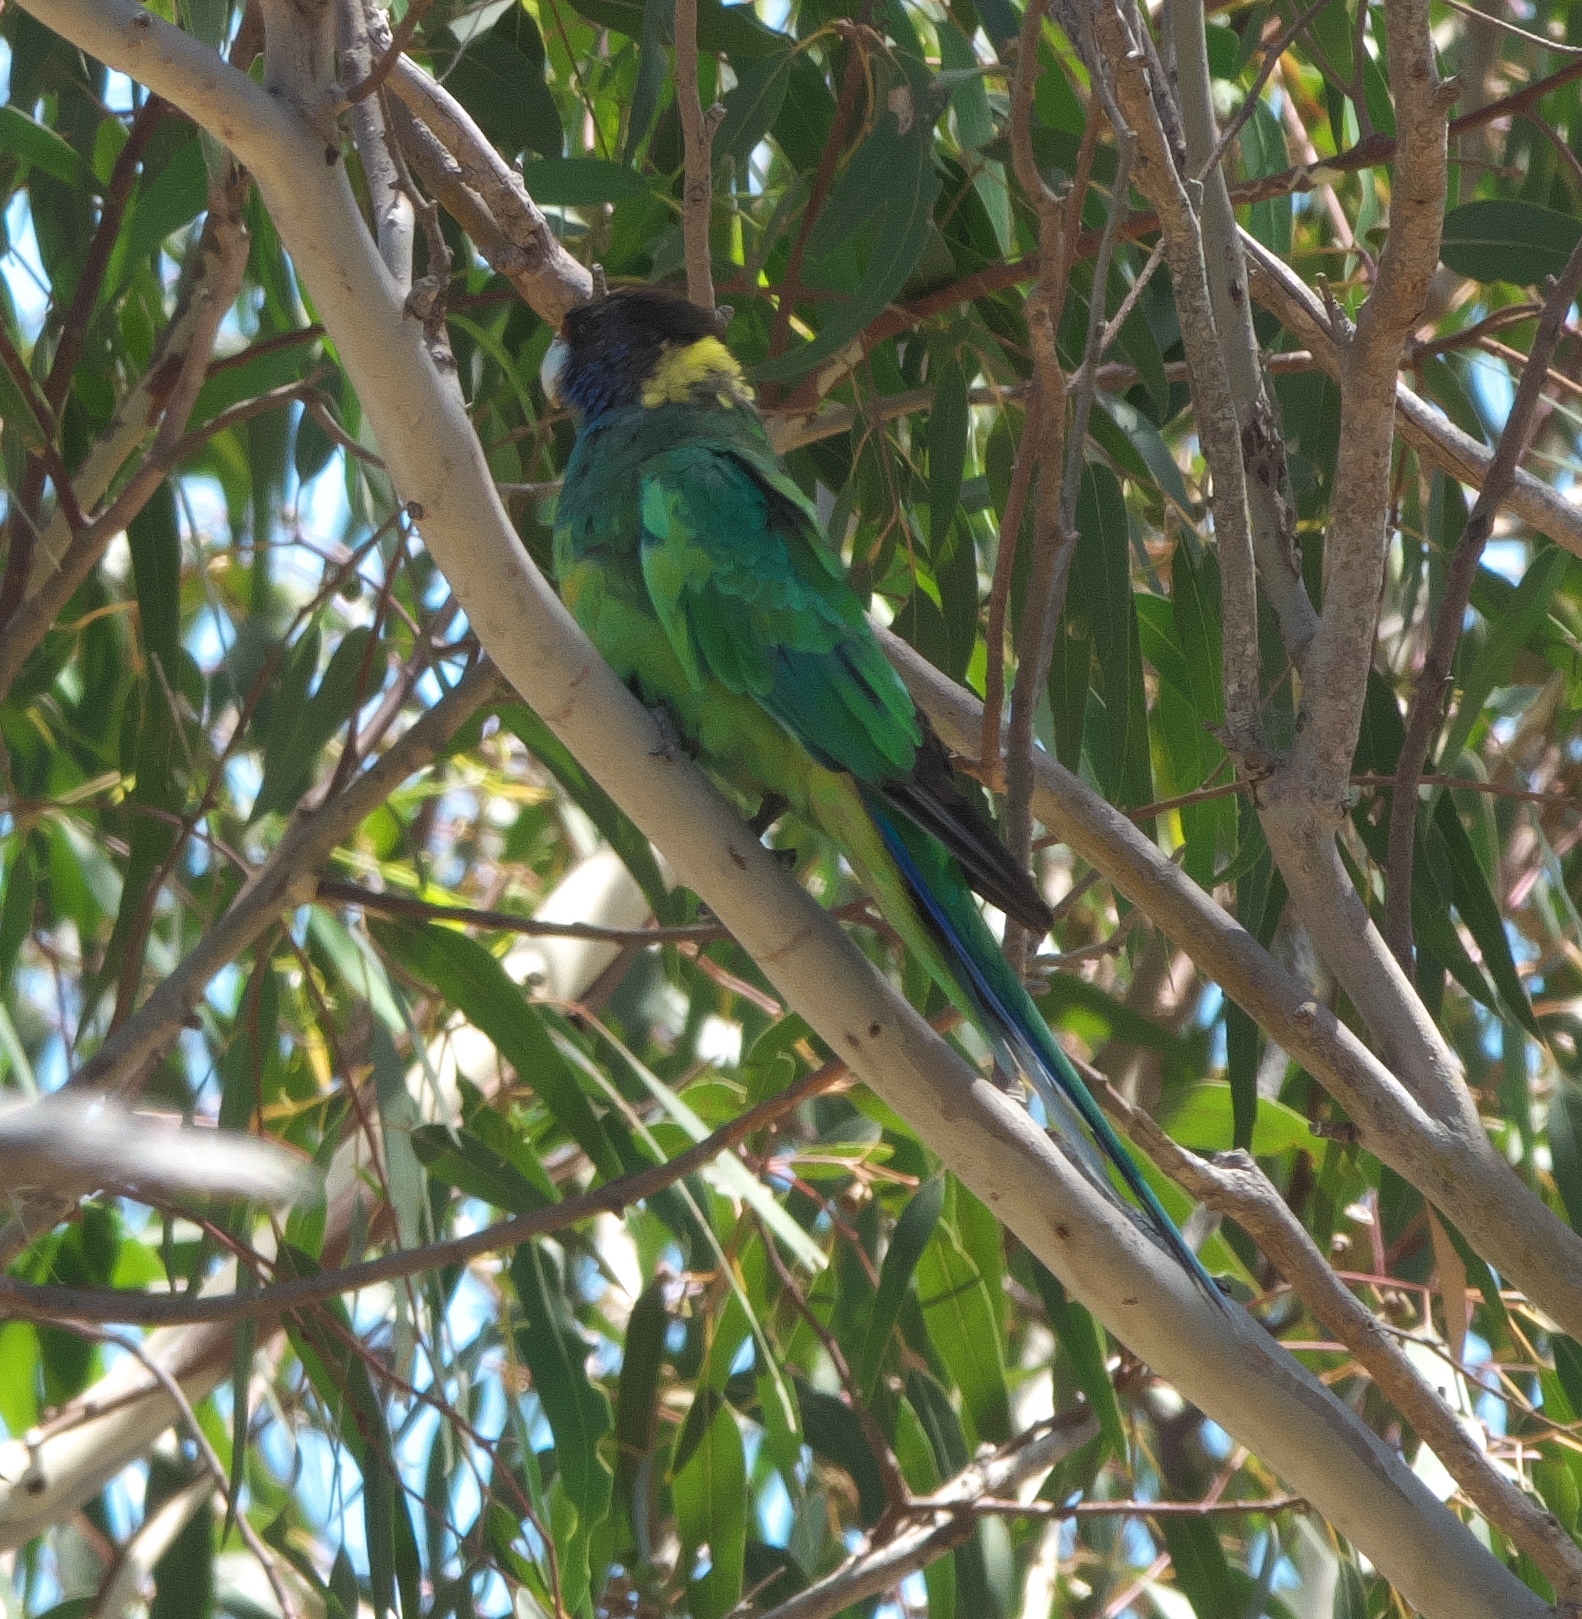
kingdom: Animalia
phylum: Chordata
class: Aves
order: Psittaciformes
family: Psittacidae
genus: Barnardius
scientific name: Barnardius zonarius
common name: Australian ringneck
